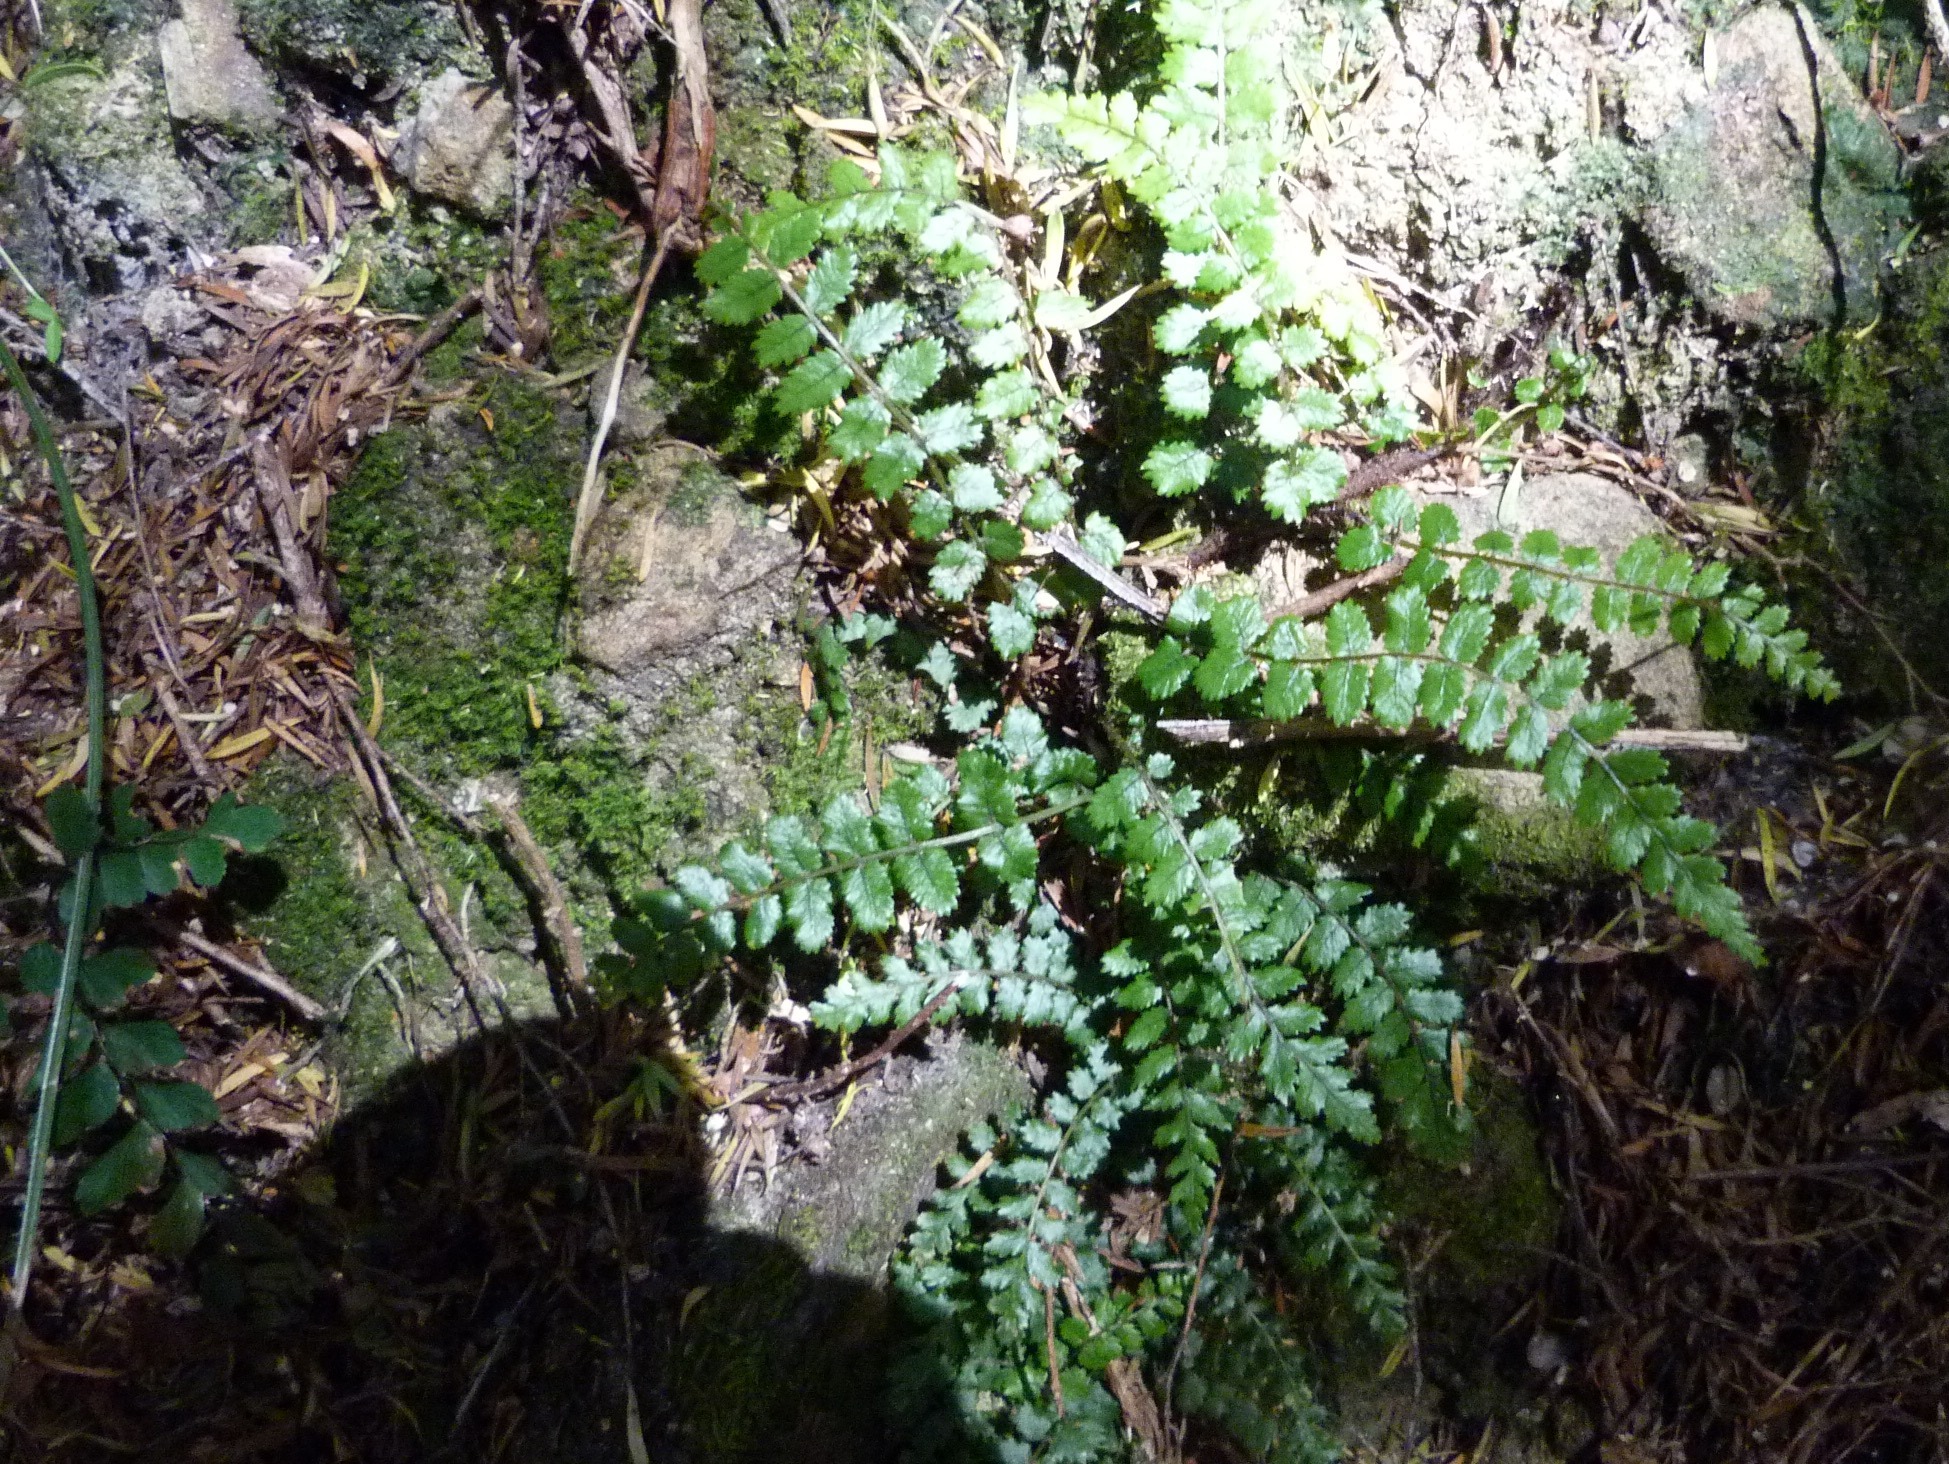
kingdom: Plantae
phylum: Tracheophyta
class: Polypodiopsida
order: Polypodiales
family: Blechnaceae
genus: Icarus
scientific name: Icarus filiformis
